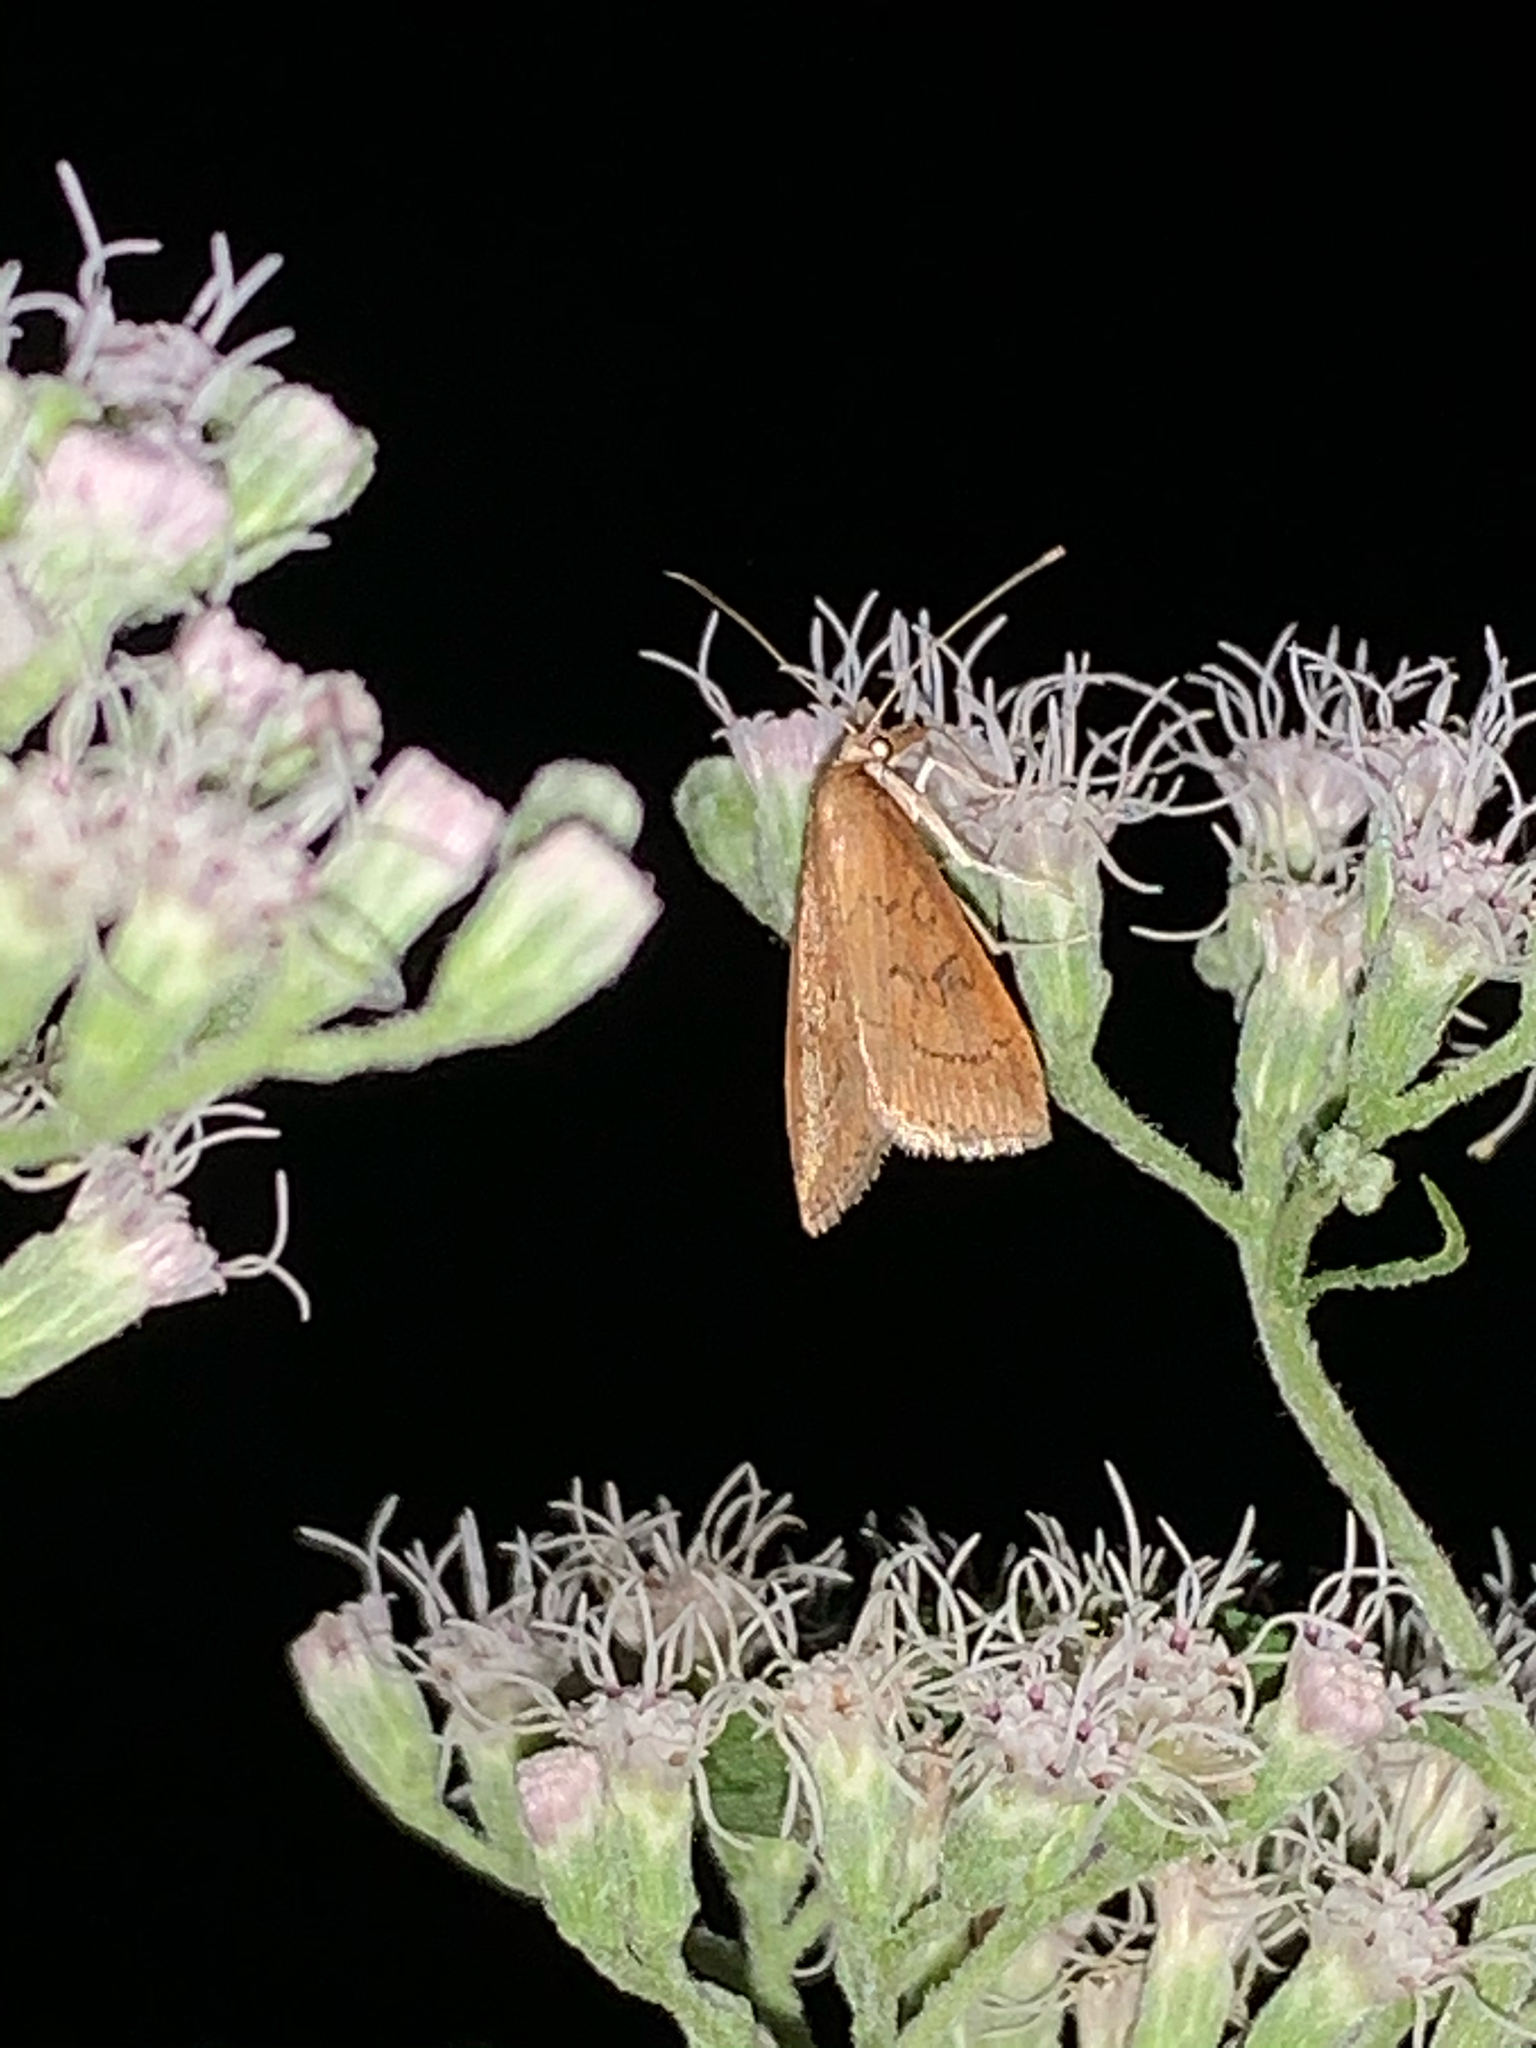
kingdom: Animalia
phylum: Arthropoda
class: Insecta
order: Lepidoptera
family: Crambidae
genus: Udea
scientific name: Udea rubigalis
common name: Celery leaftier moth
